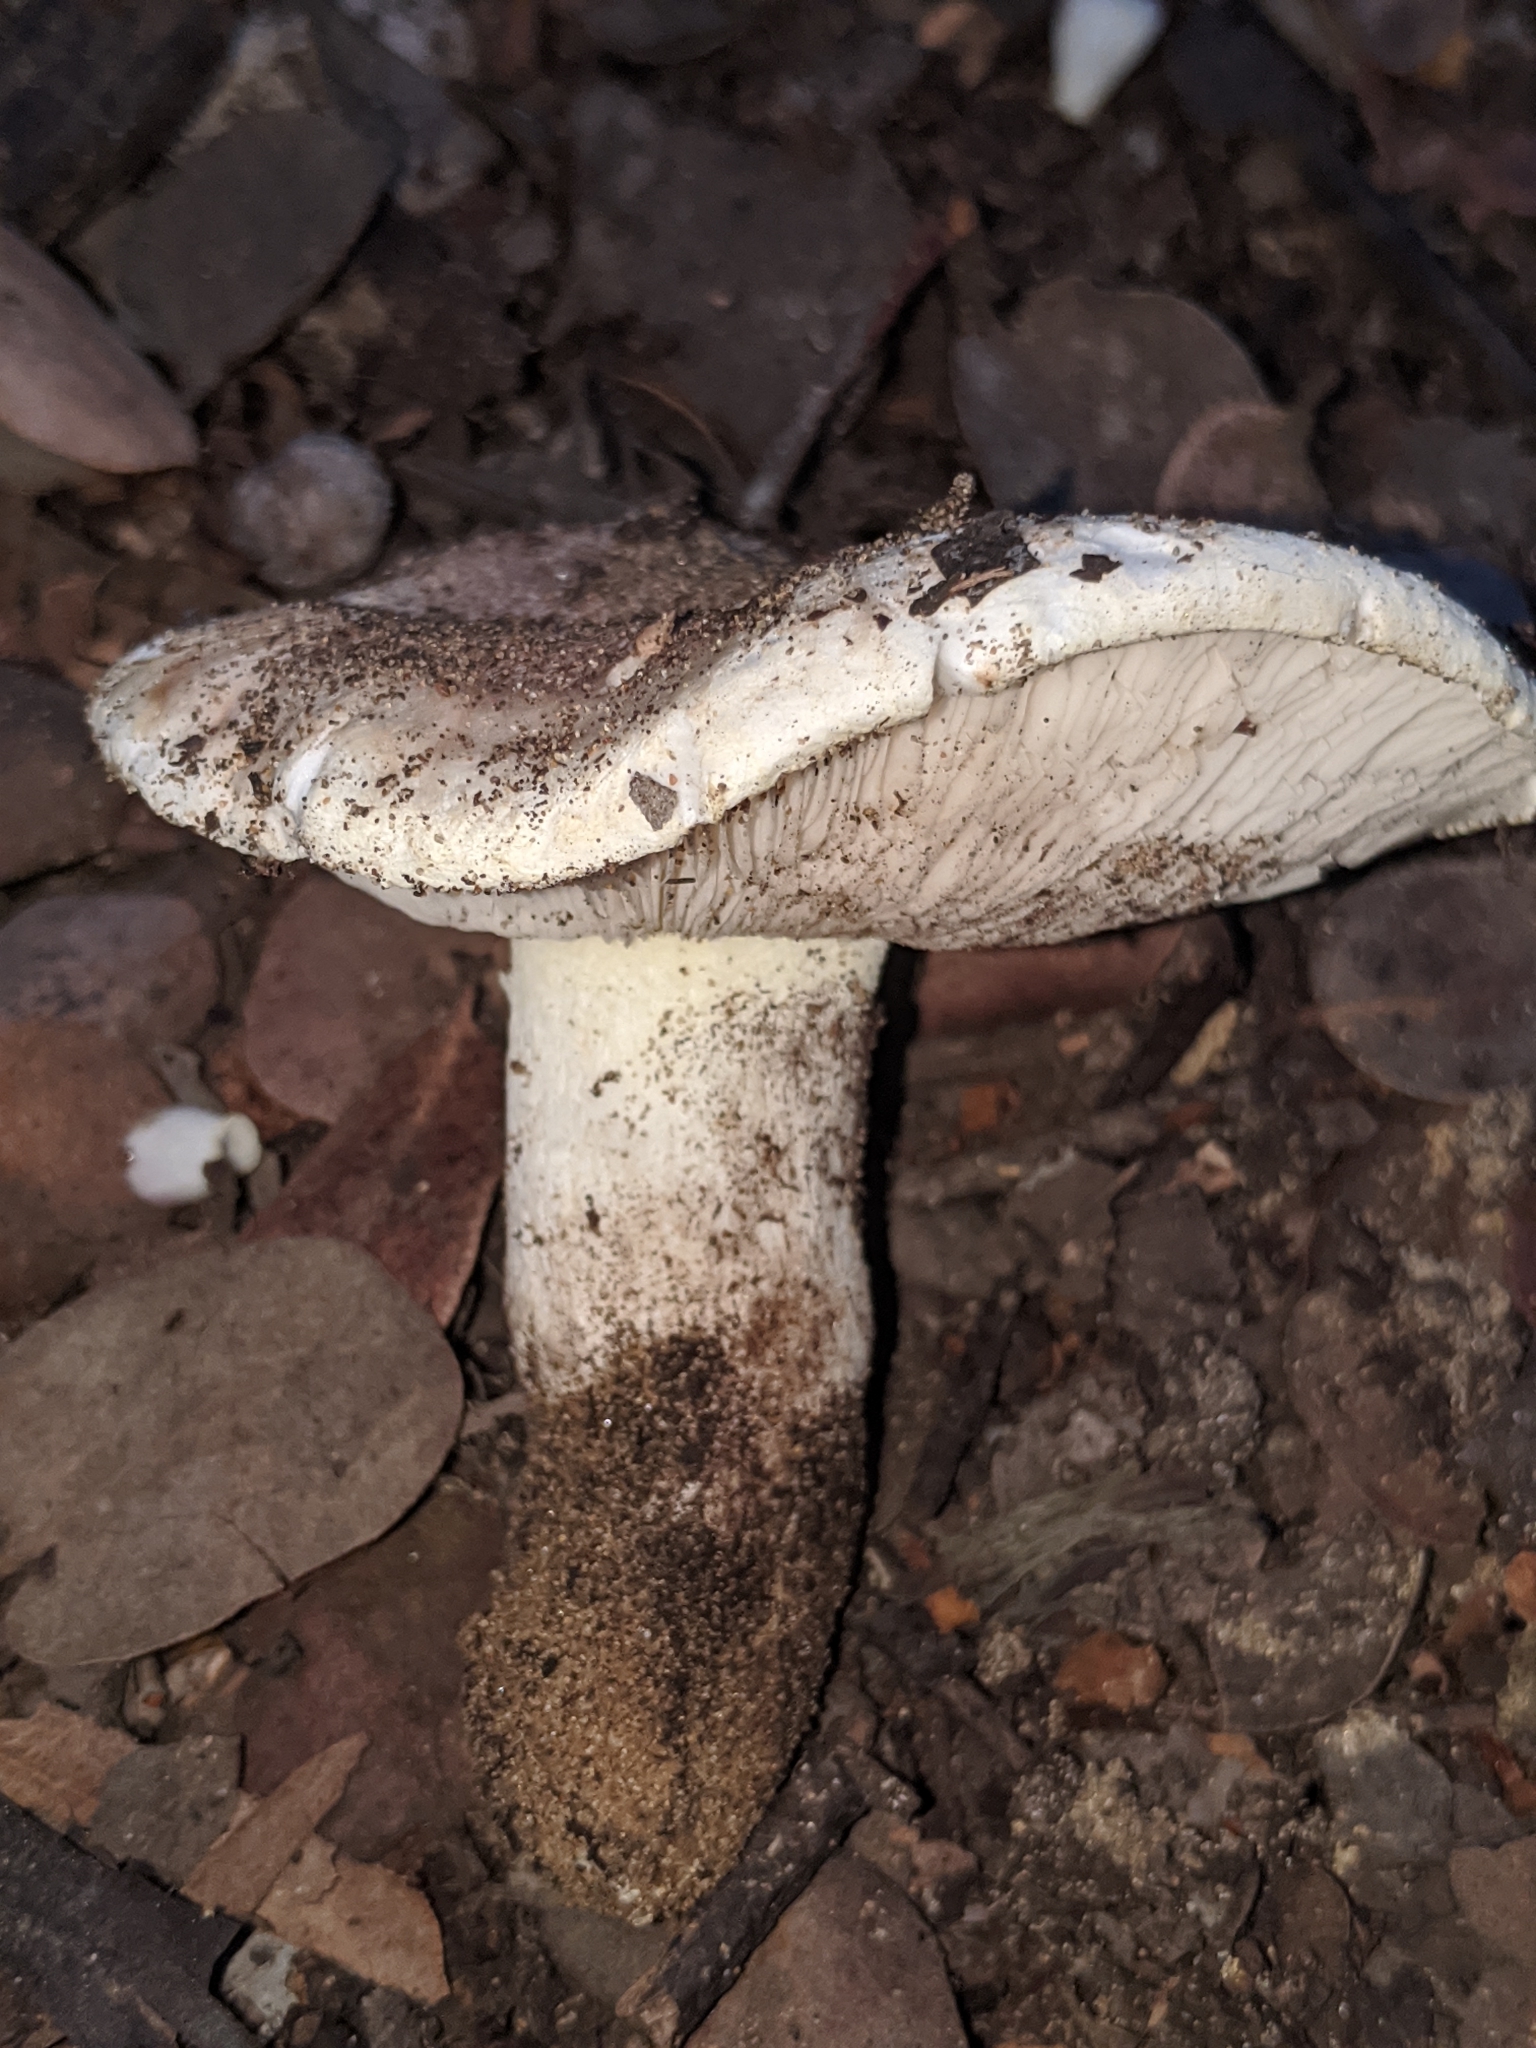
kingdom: Fungi
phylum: Basidiomycota
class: Agaricomycetes
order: Agaricales
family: Tricholomataceae
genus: Tricholoma
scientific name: Tricholoma manzanitae
